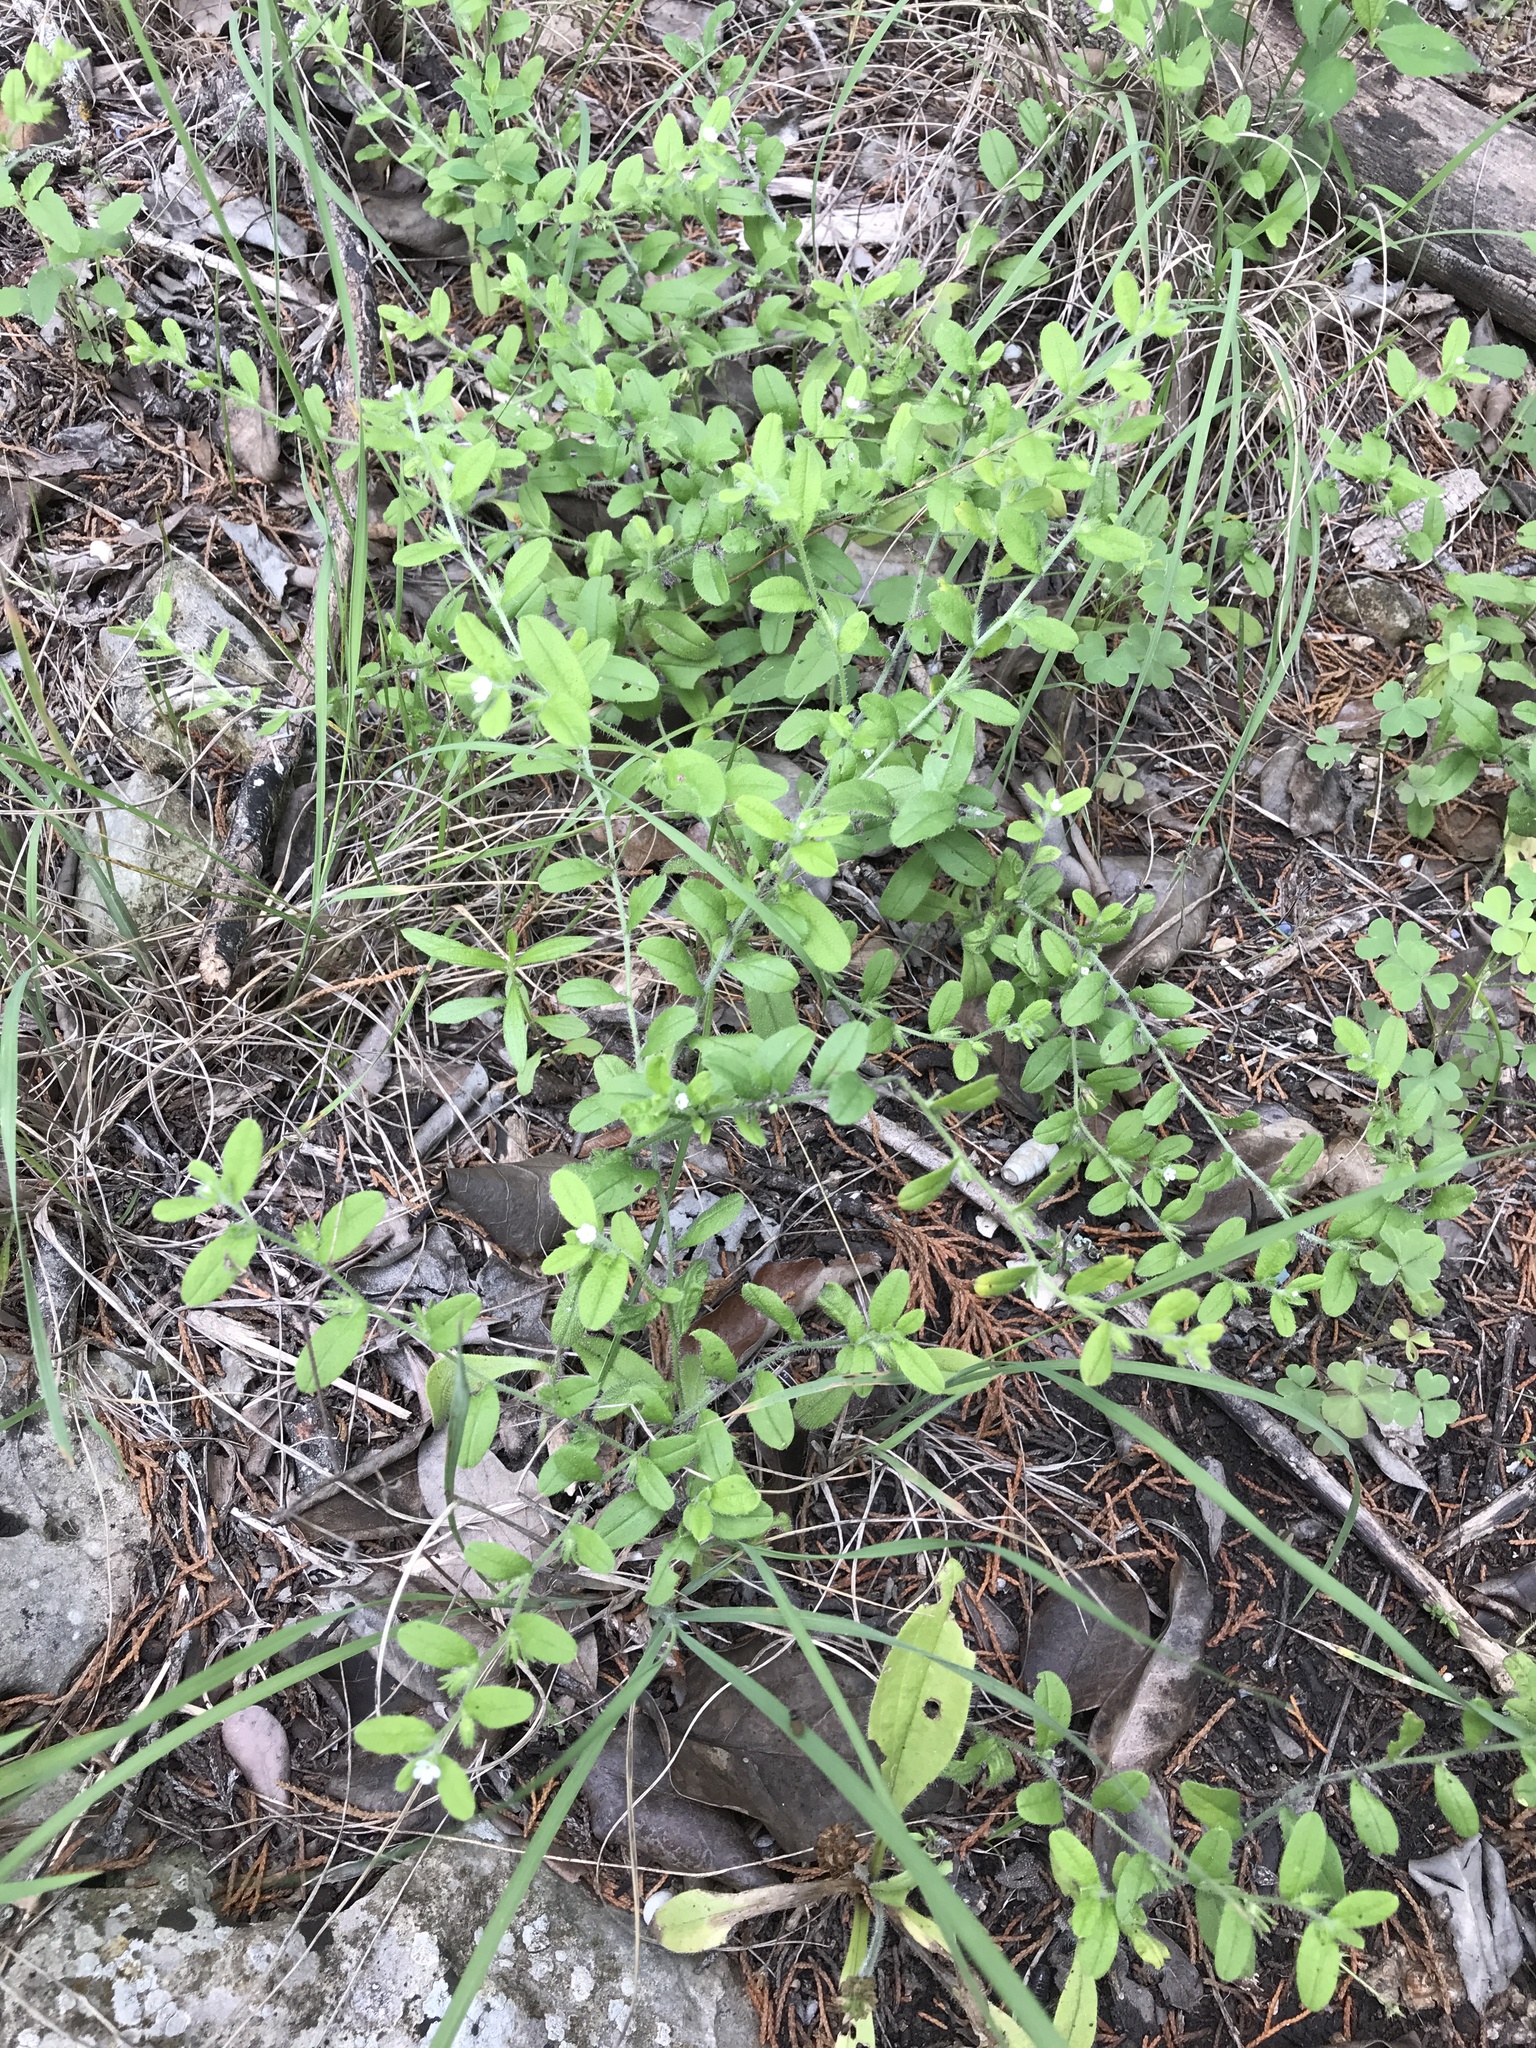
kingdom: Plantae
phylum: Tracheophyta
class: Magnoliopsida
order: Boraginales
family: Boraginaceae
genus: Lithospermum
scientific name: Lithospermum matamorense
